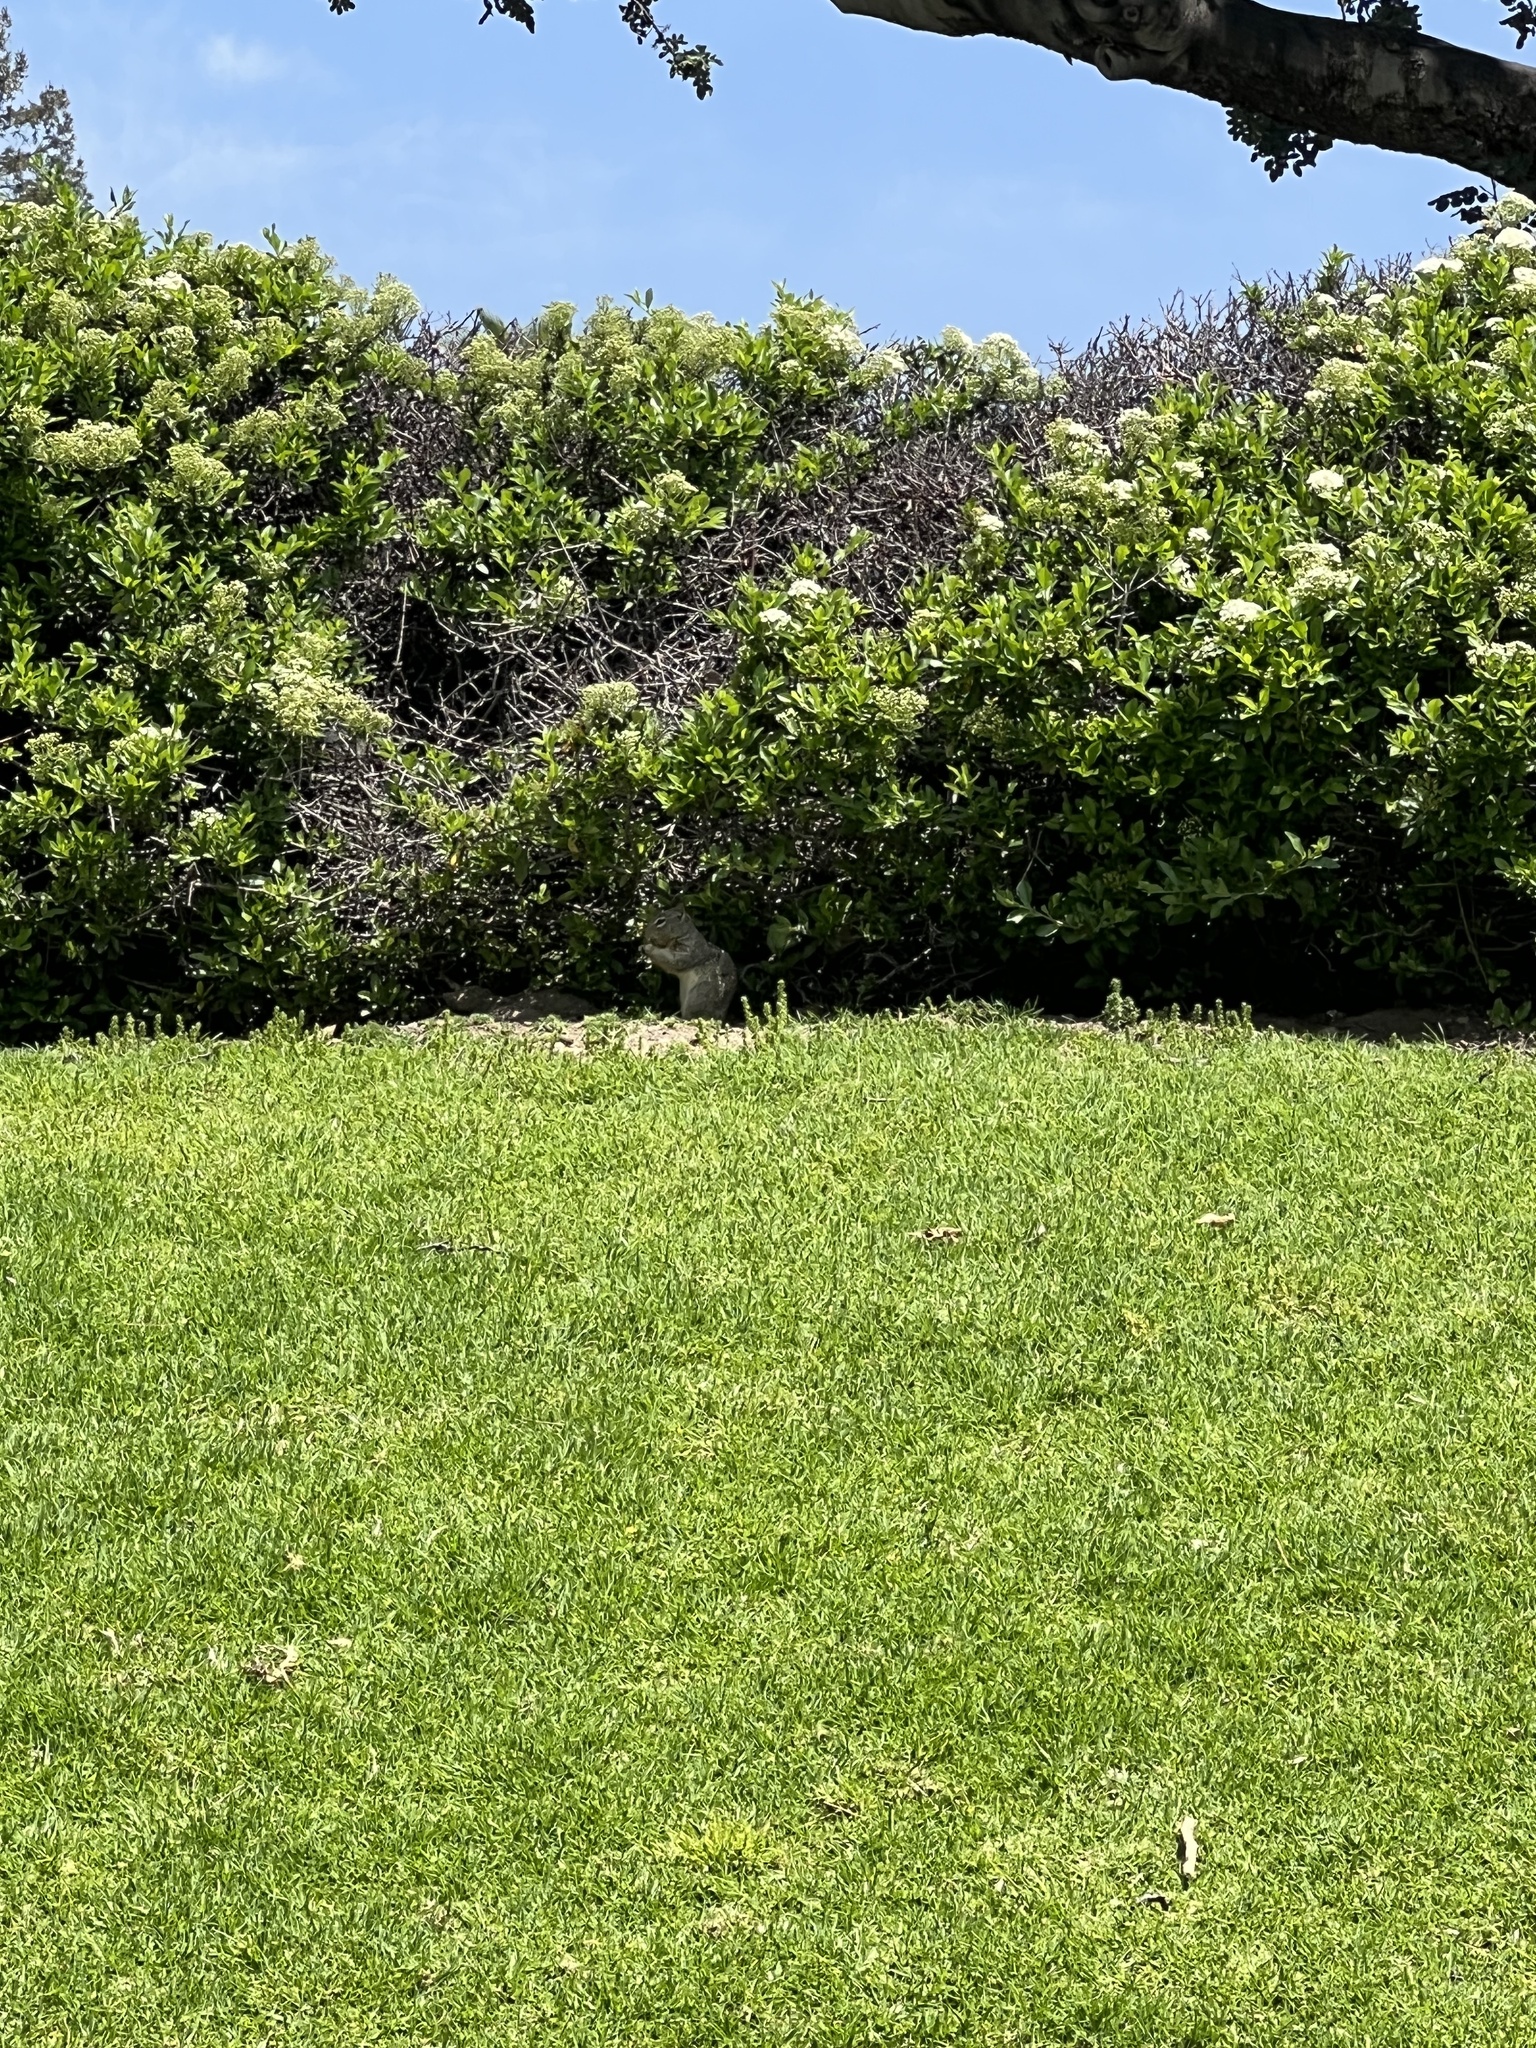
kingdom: Animalia
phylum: Chordata
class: Mammalia
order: Rodentia
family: Sciuridae
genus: Otospermophilus
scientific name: Otospermophilus beecheyi
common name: California ground squirrel
